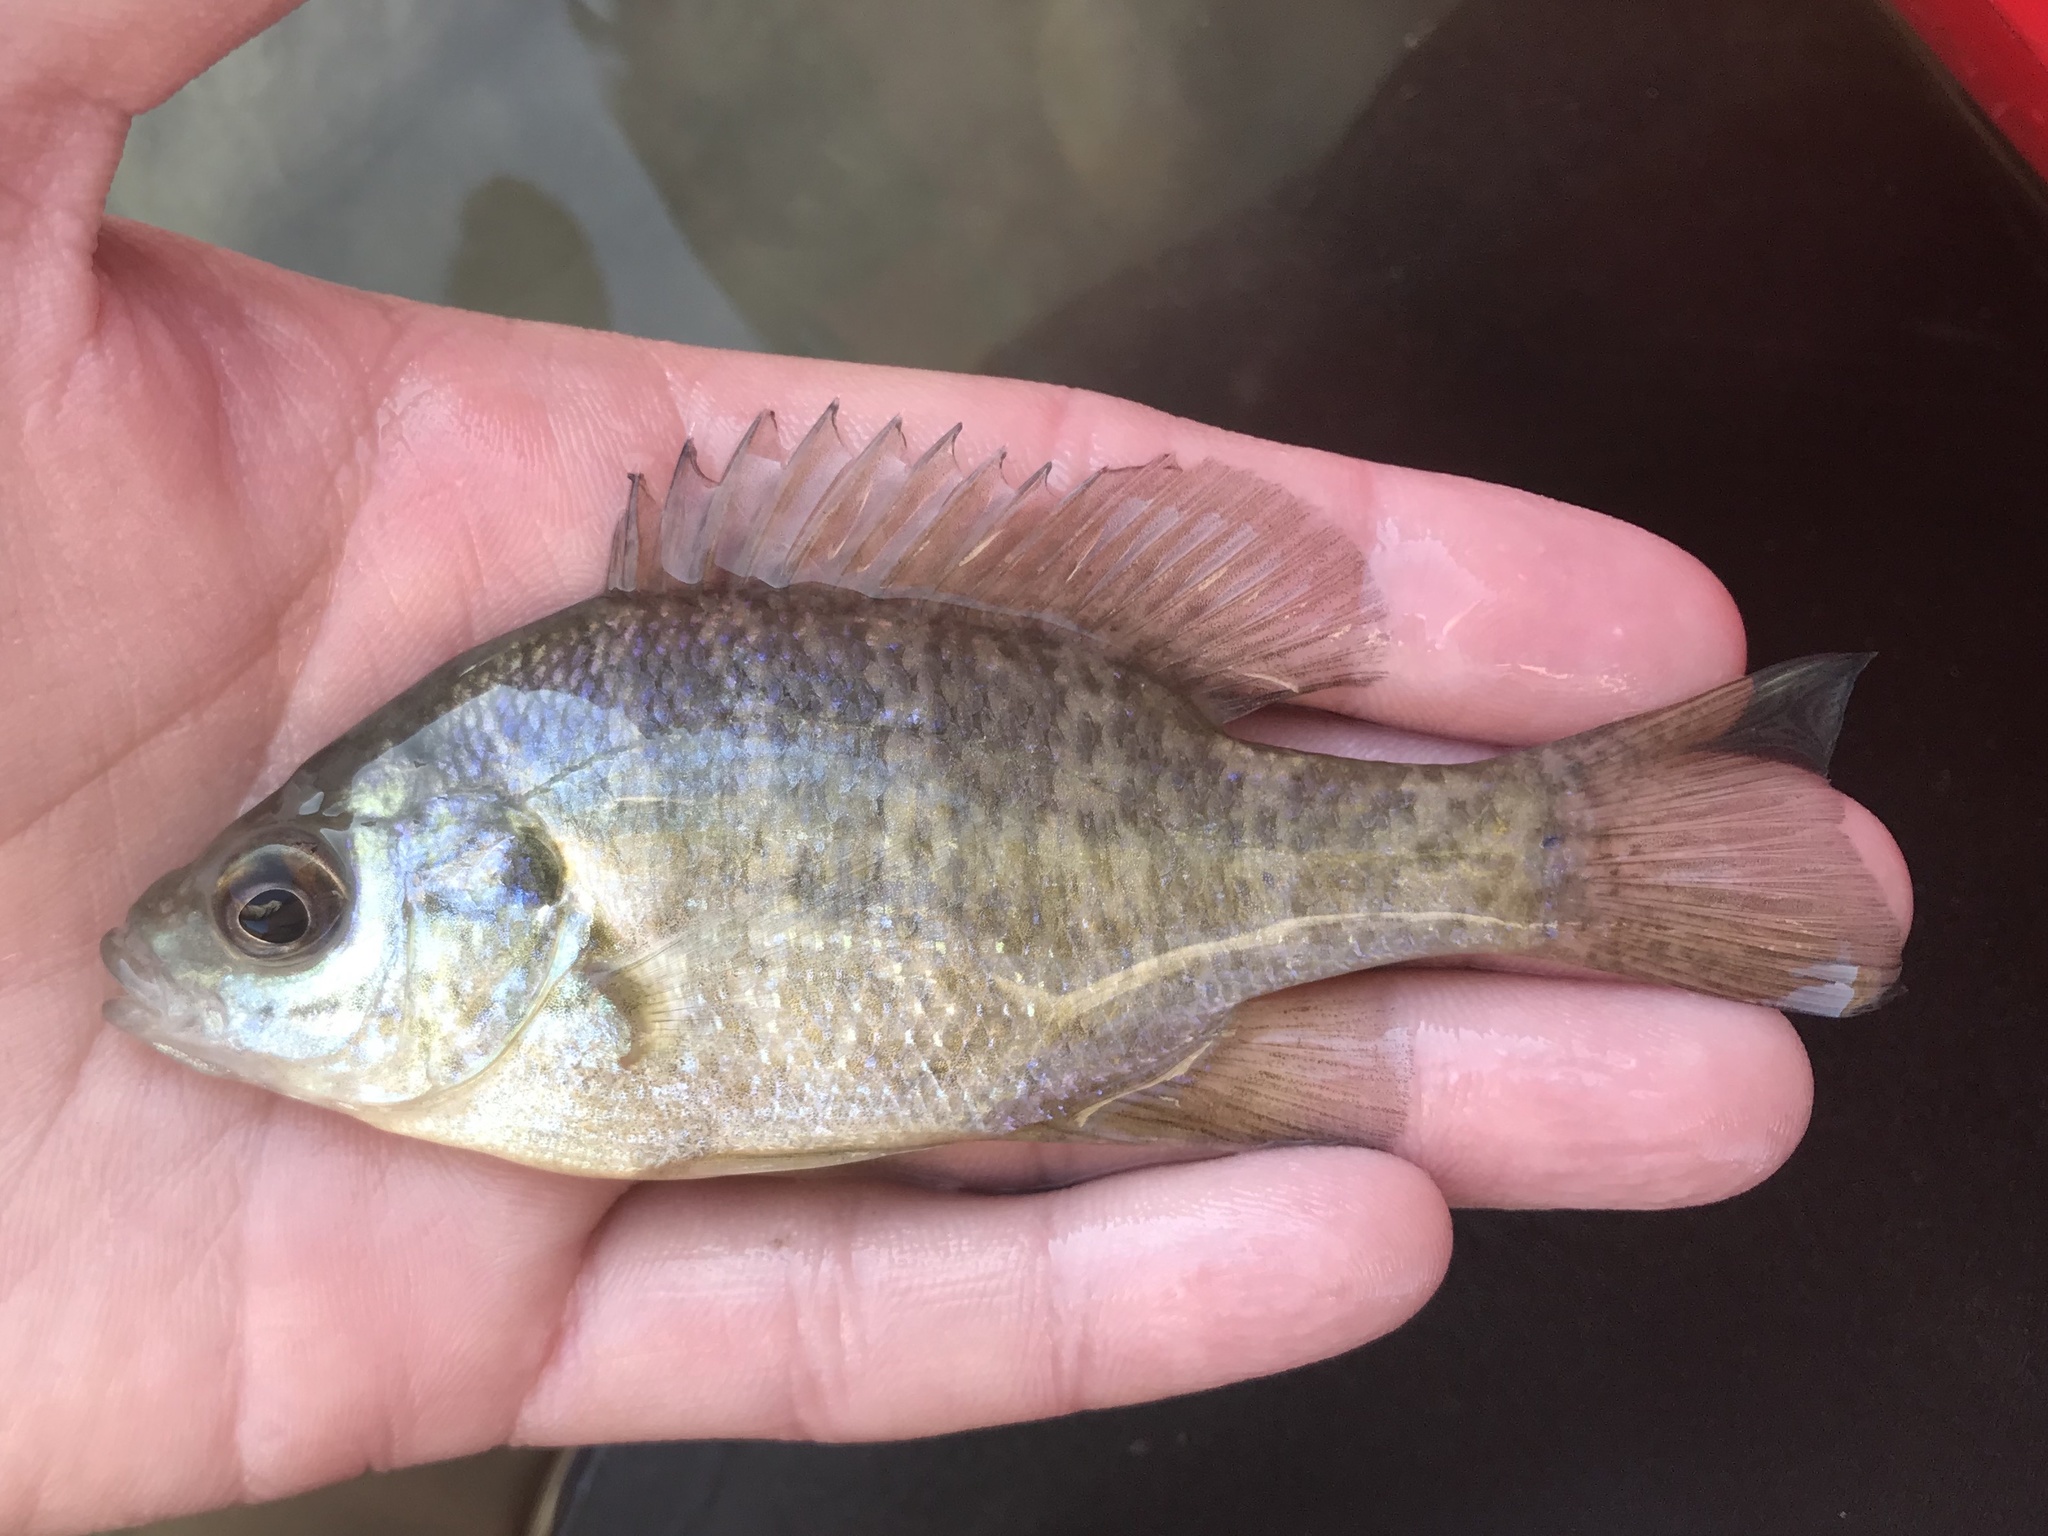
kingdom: Animalia
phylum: Chordata
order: Perciformes
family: Centrarchidae
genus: Lepomis
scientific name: Lepomis microlophus
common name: Redear sunfish
